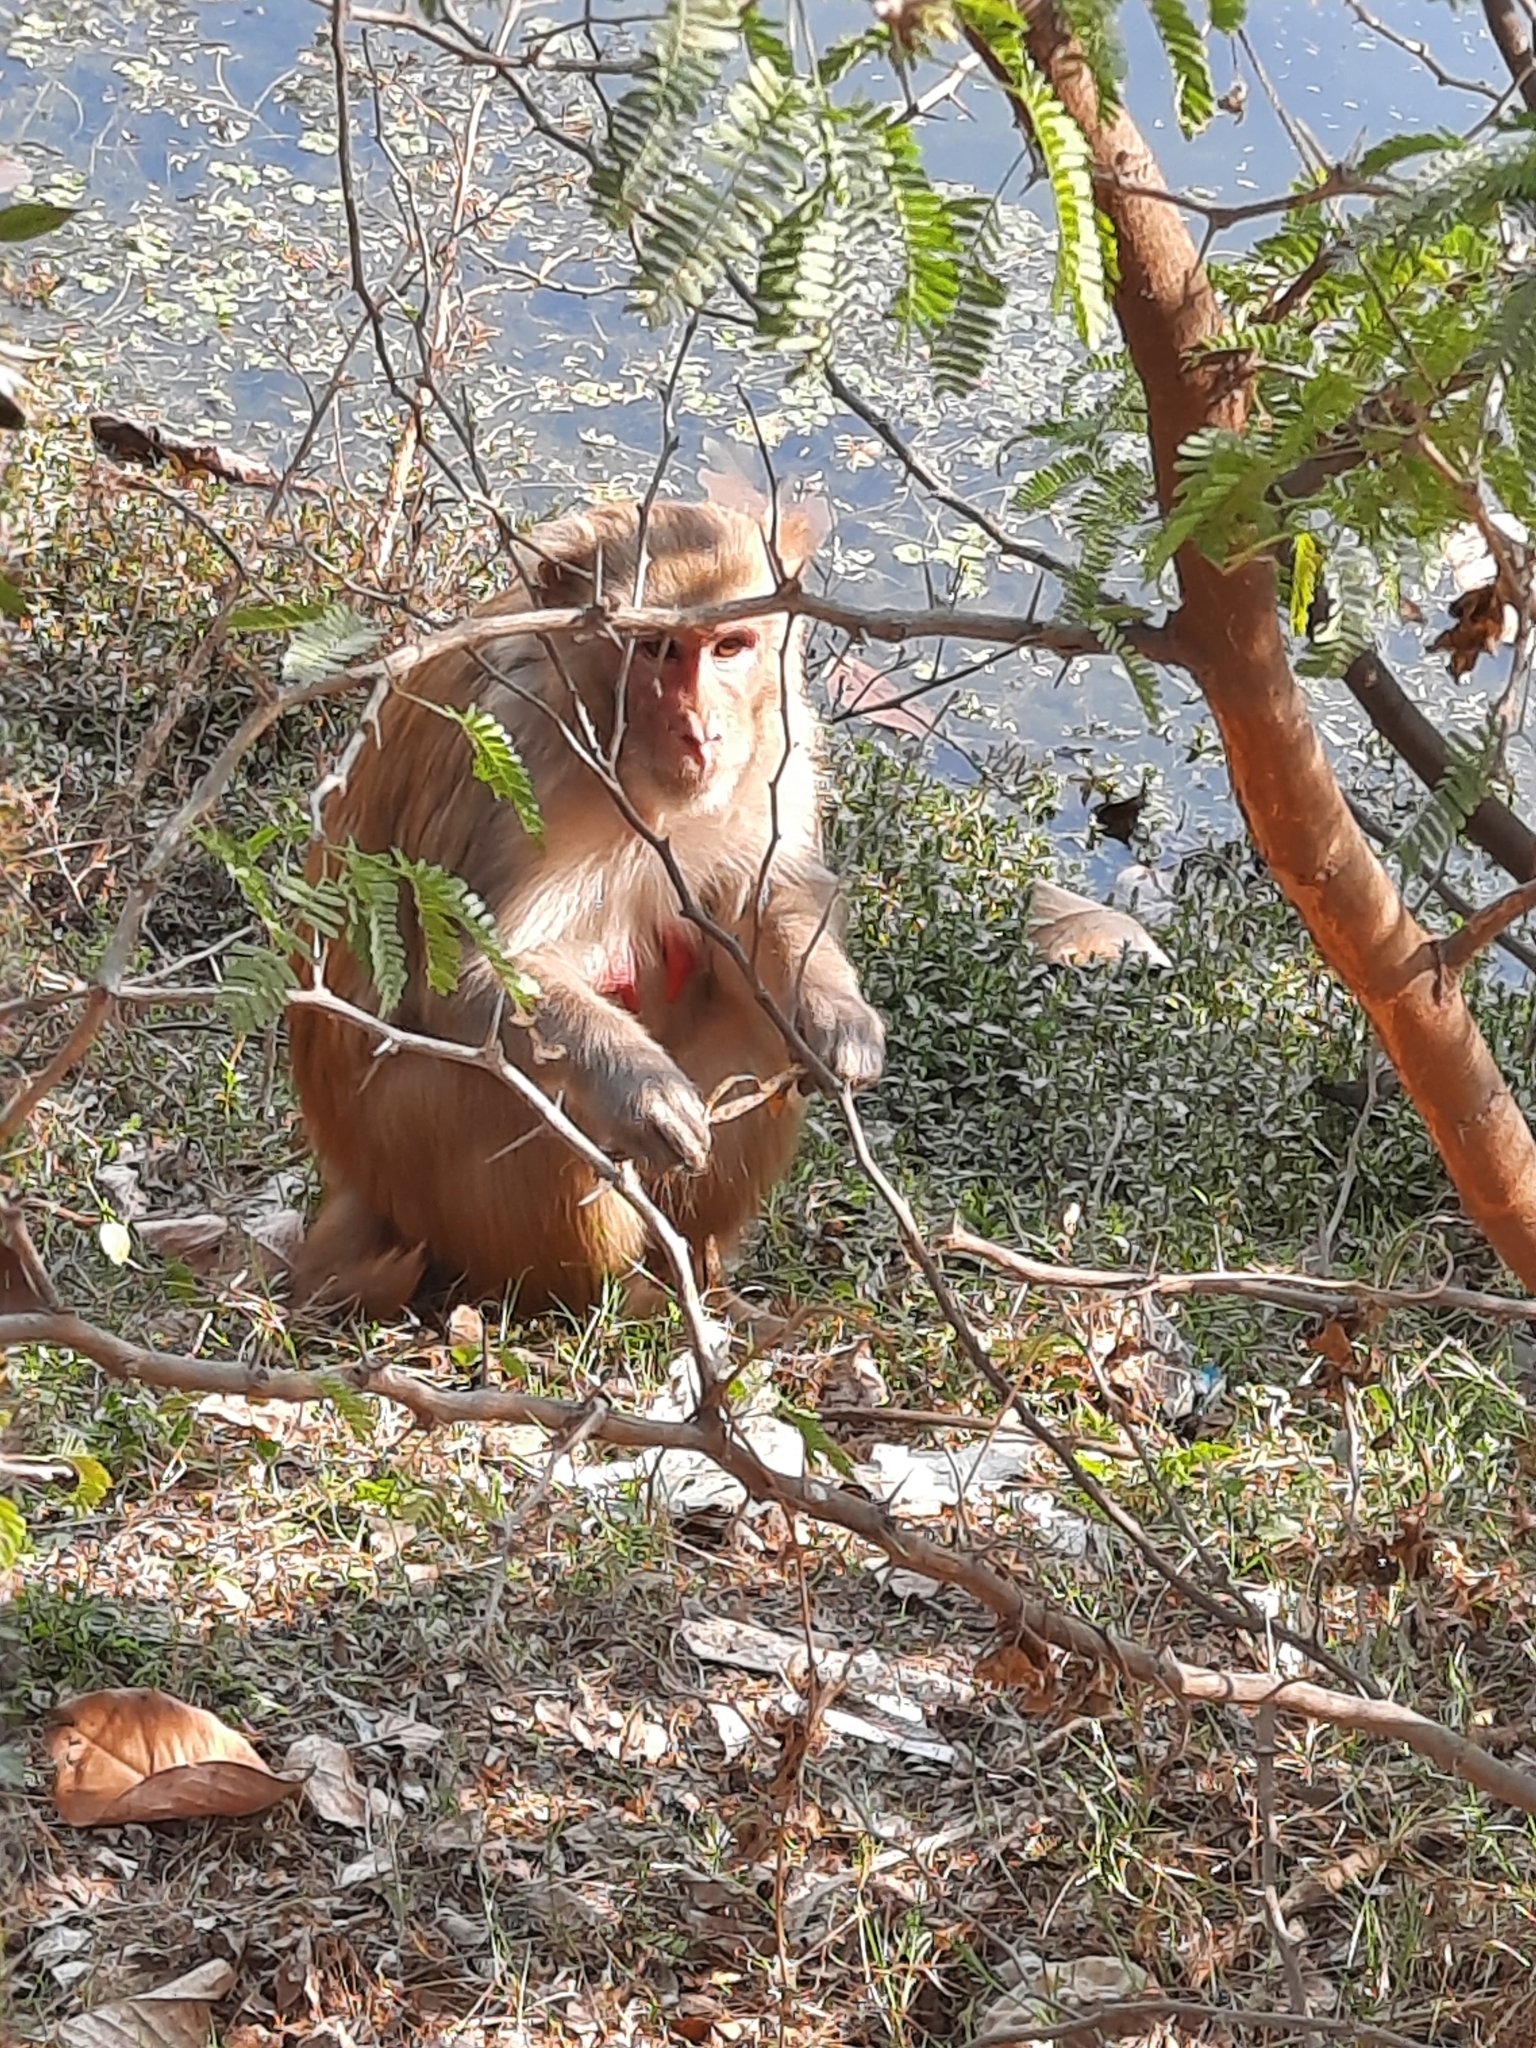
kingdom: Animalia
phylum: Chordata
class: Mammalia
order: Primates
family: Cercopithecidae
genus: Macaca
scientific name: Macaca mulatta
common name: Rhesus monkey
